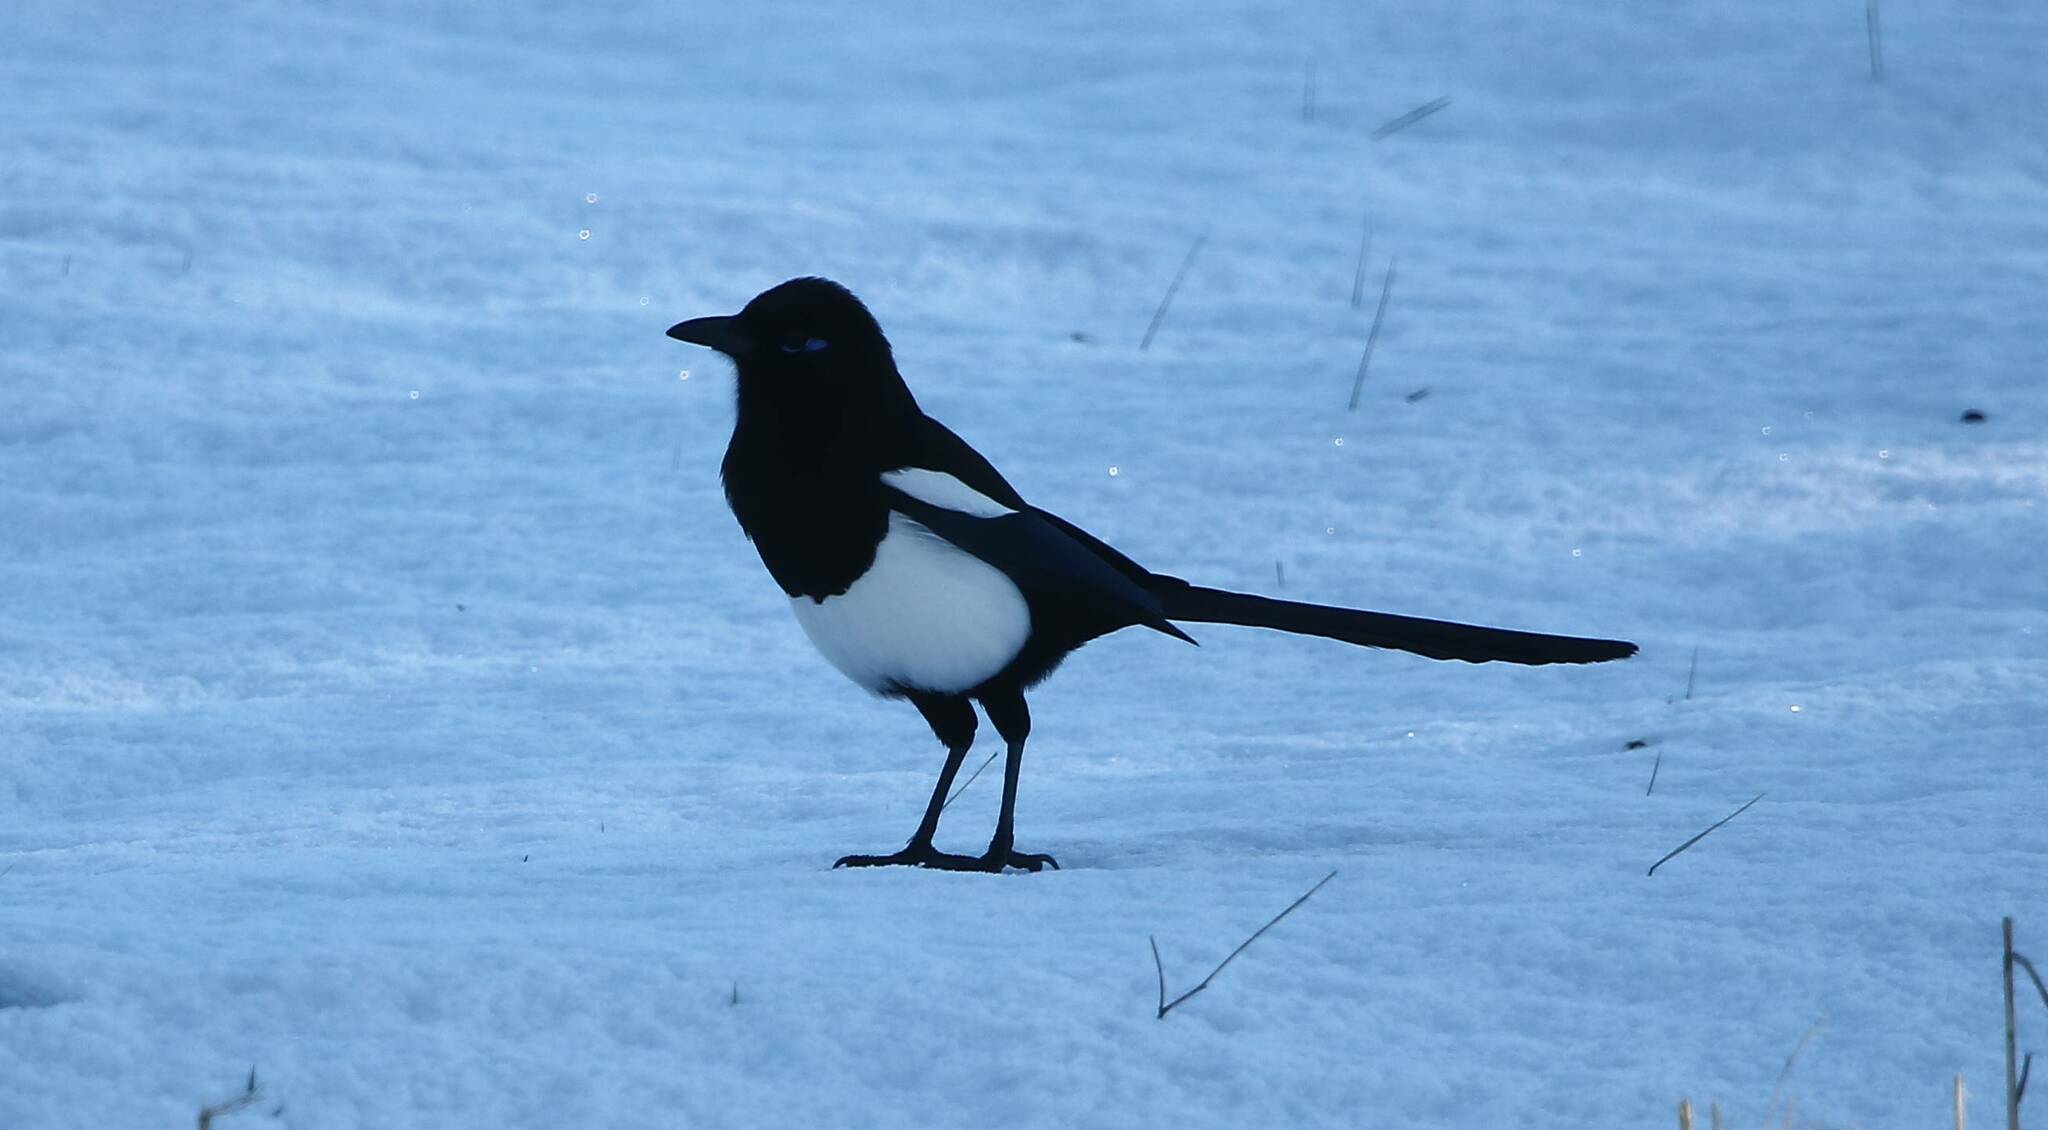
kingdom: Animalia
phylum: Chordata
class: Aves
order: Passeriformes
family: Corvidae
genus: Pica
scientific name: Pica mauritanica
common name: Maghreb magpie
